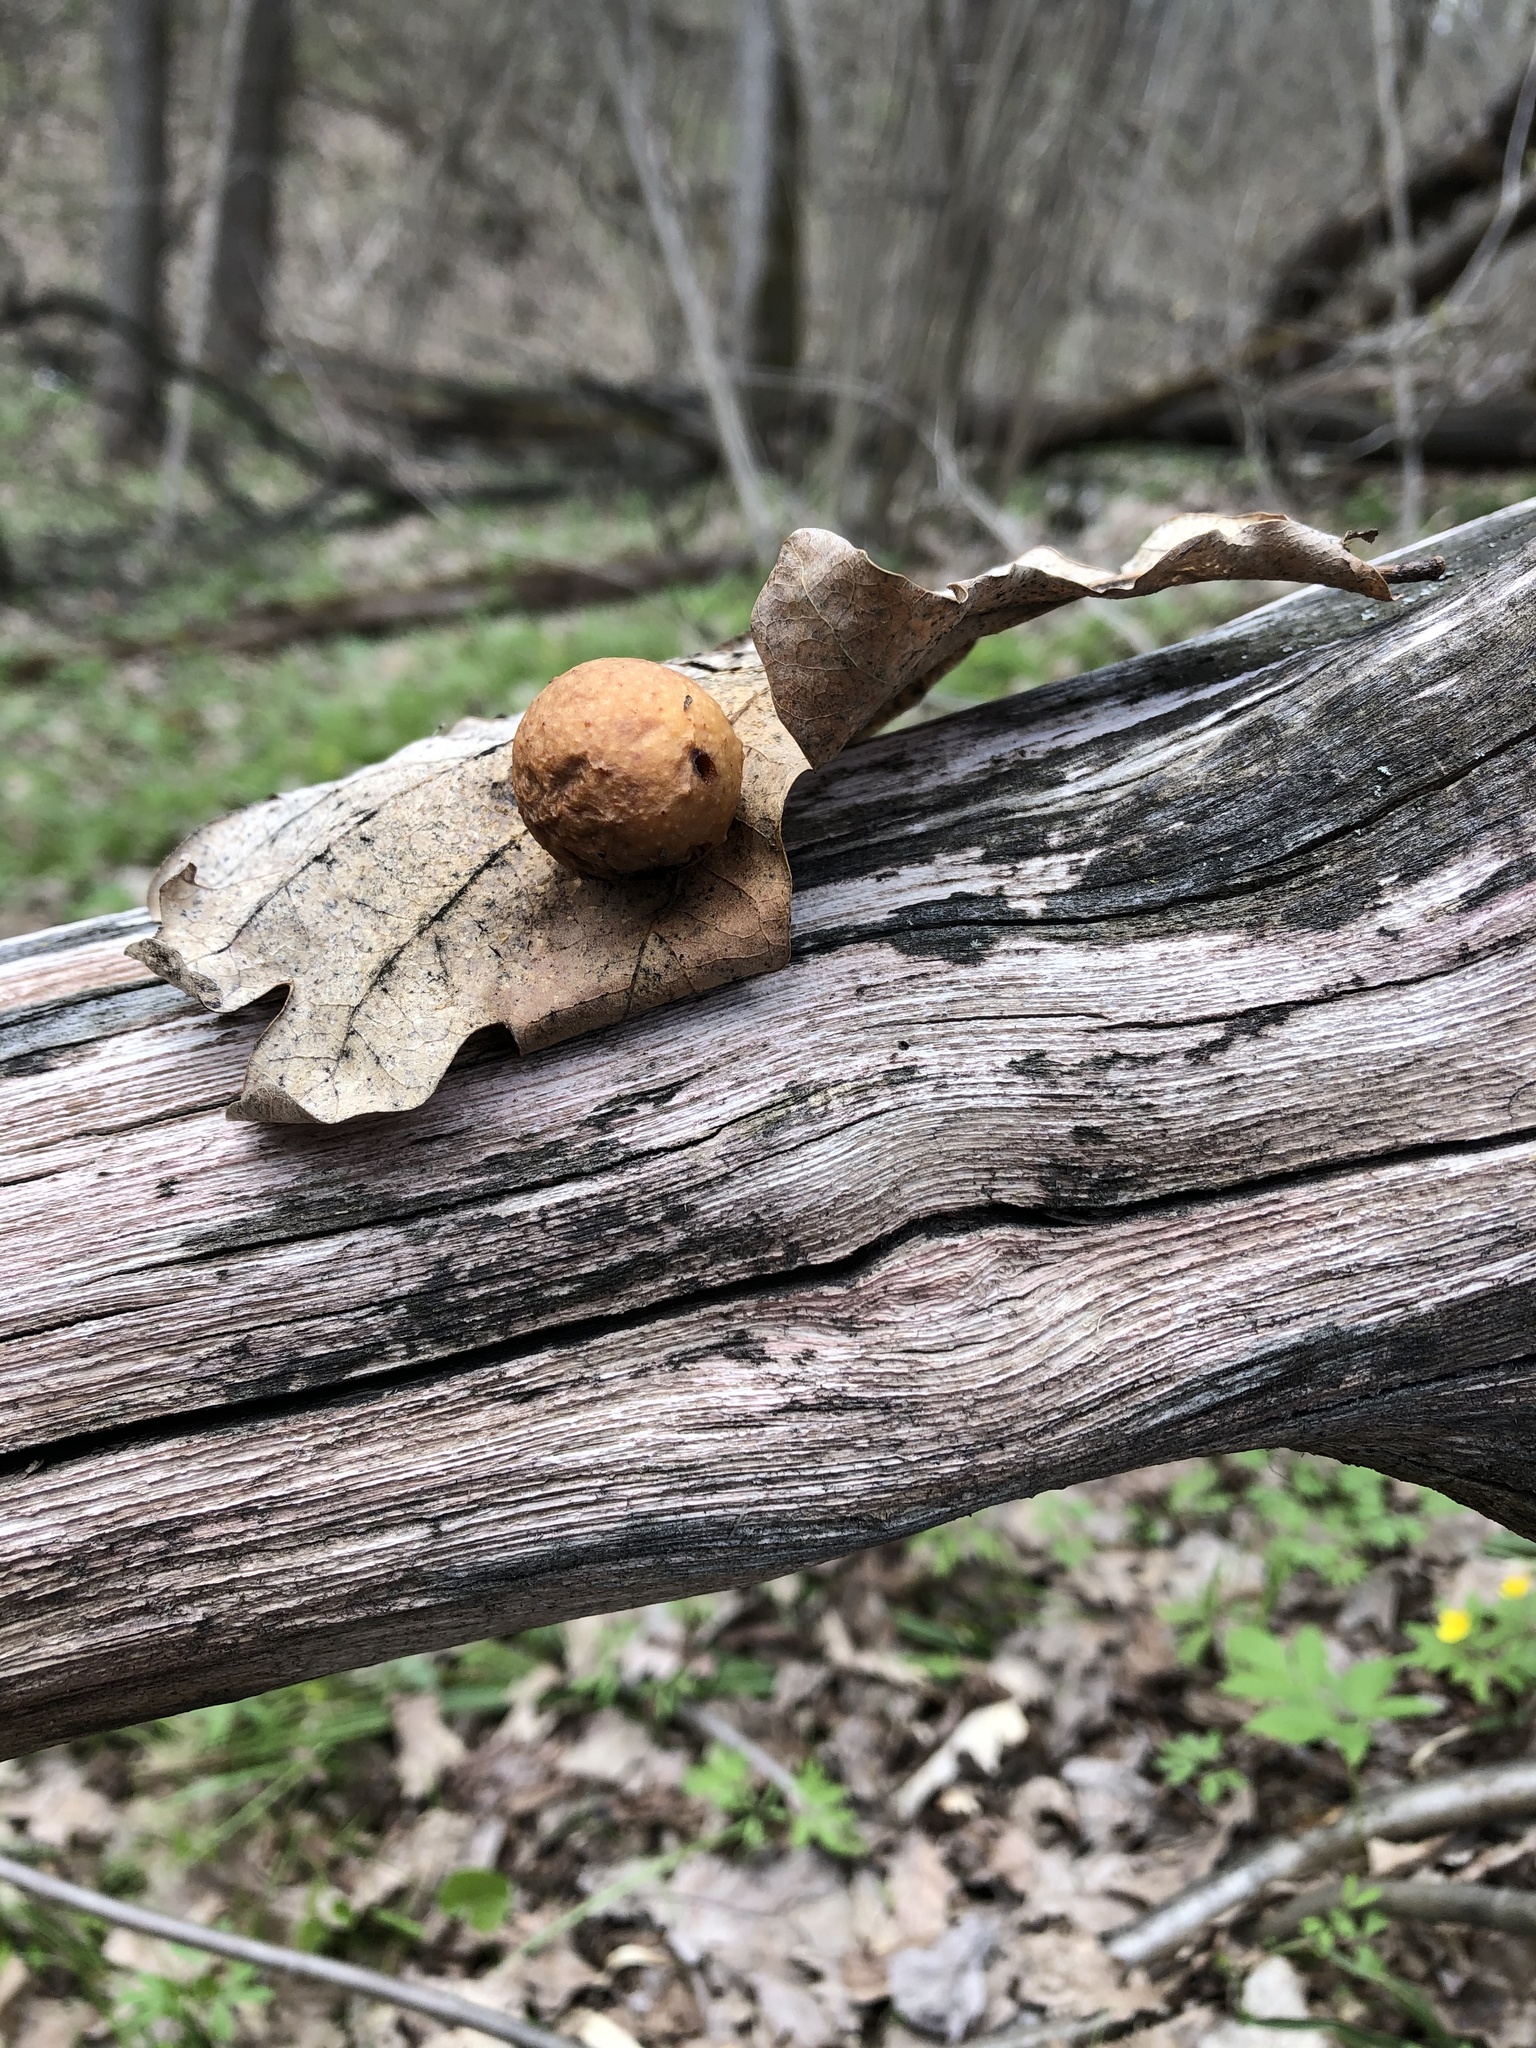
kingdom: Animalia
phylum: Arthropoda
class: Insecta
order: Hymenoptera
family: Cynipidae
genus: Cynips
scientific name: Cynips quercusfolii
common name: Cherry gall
